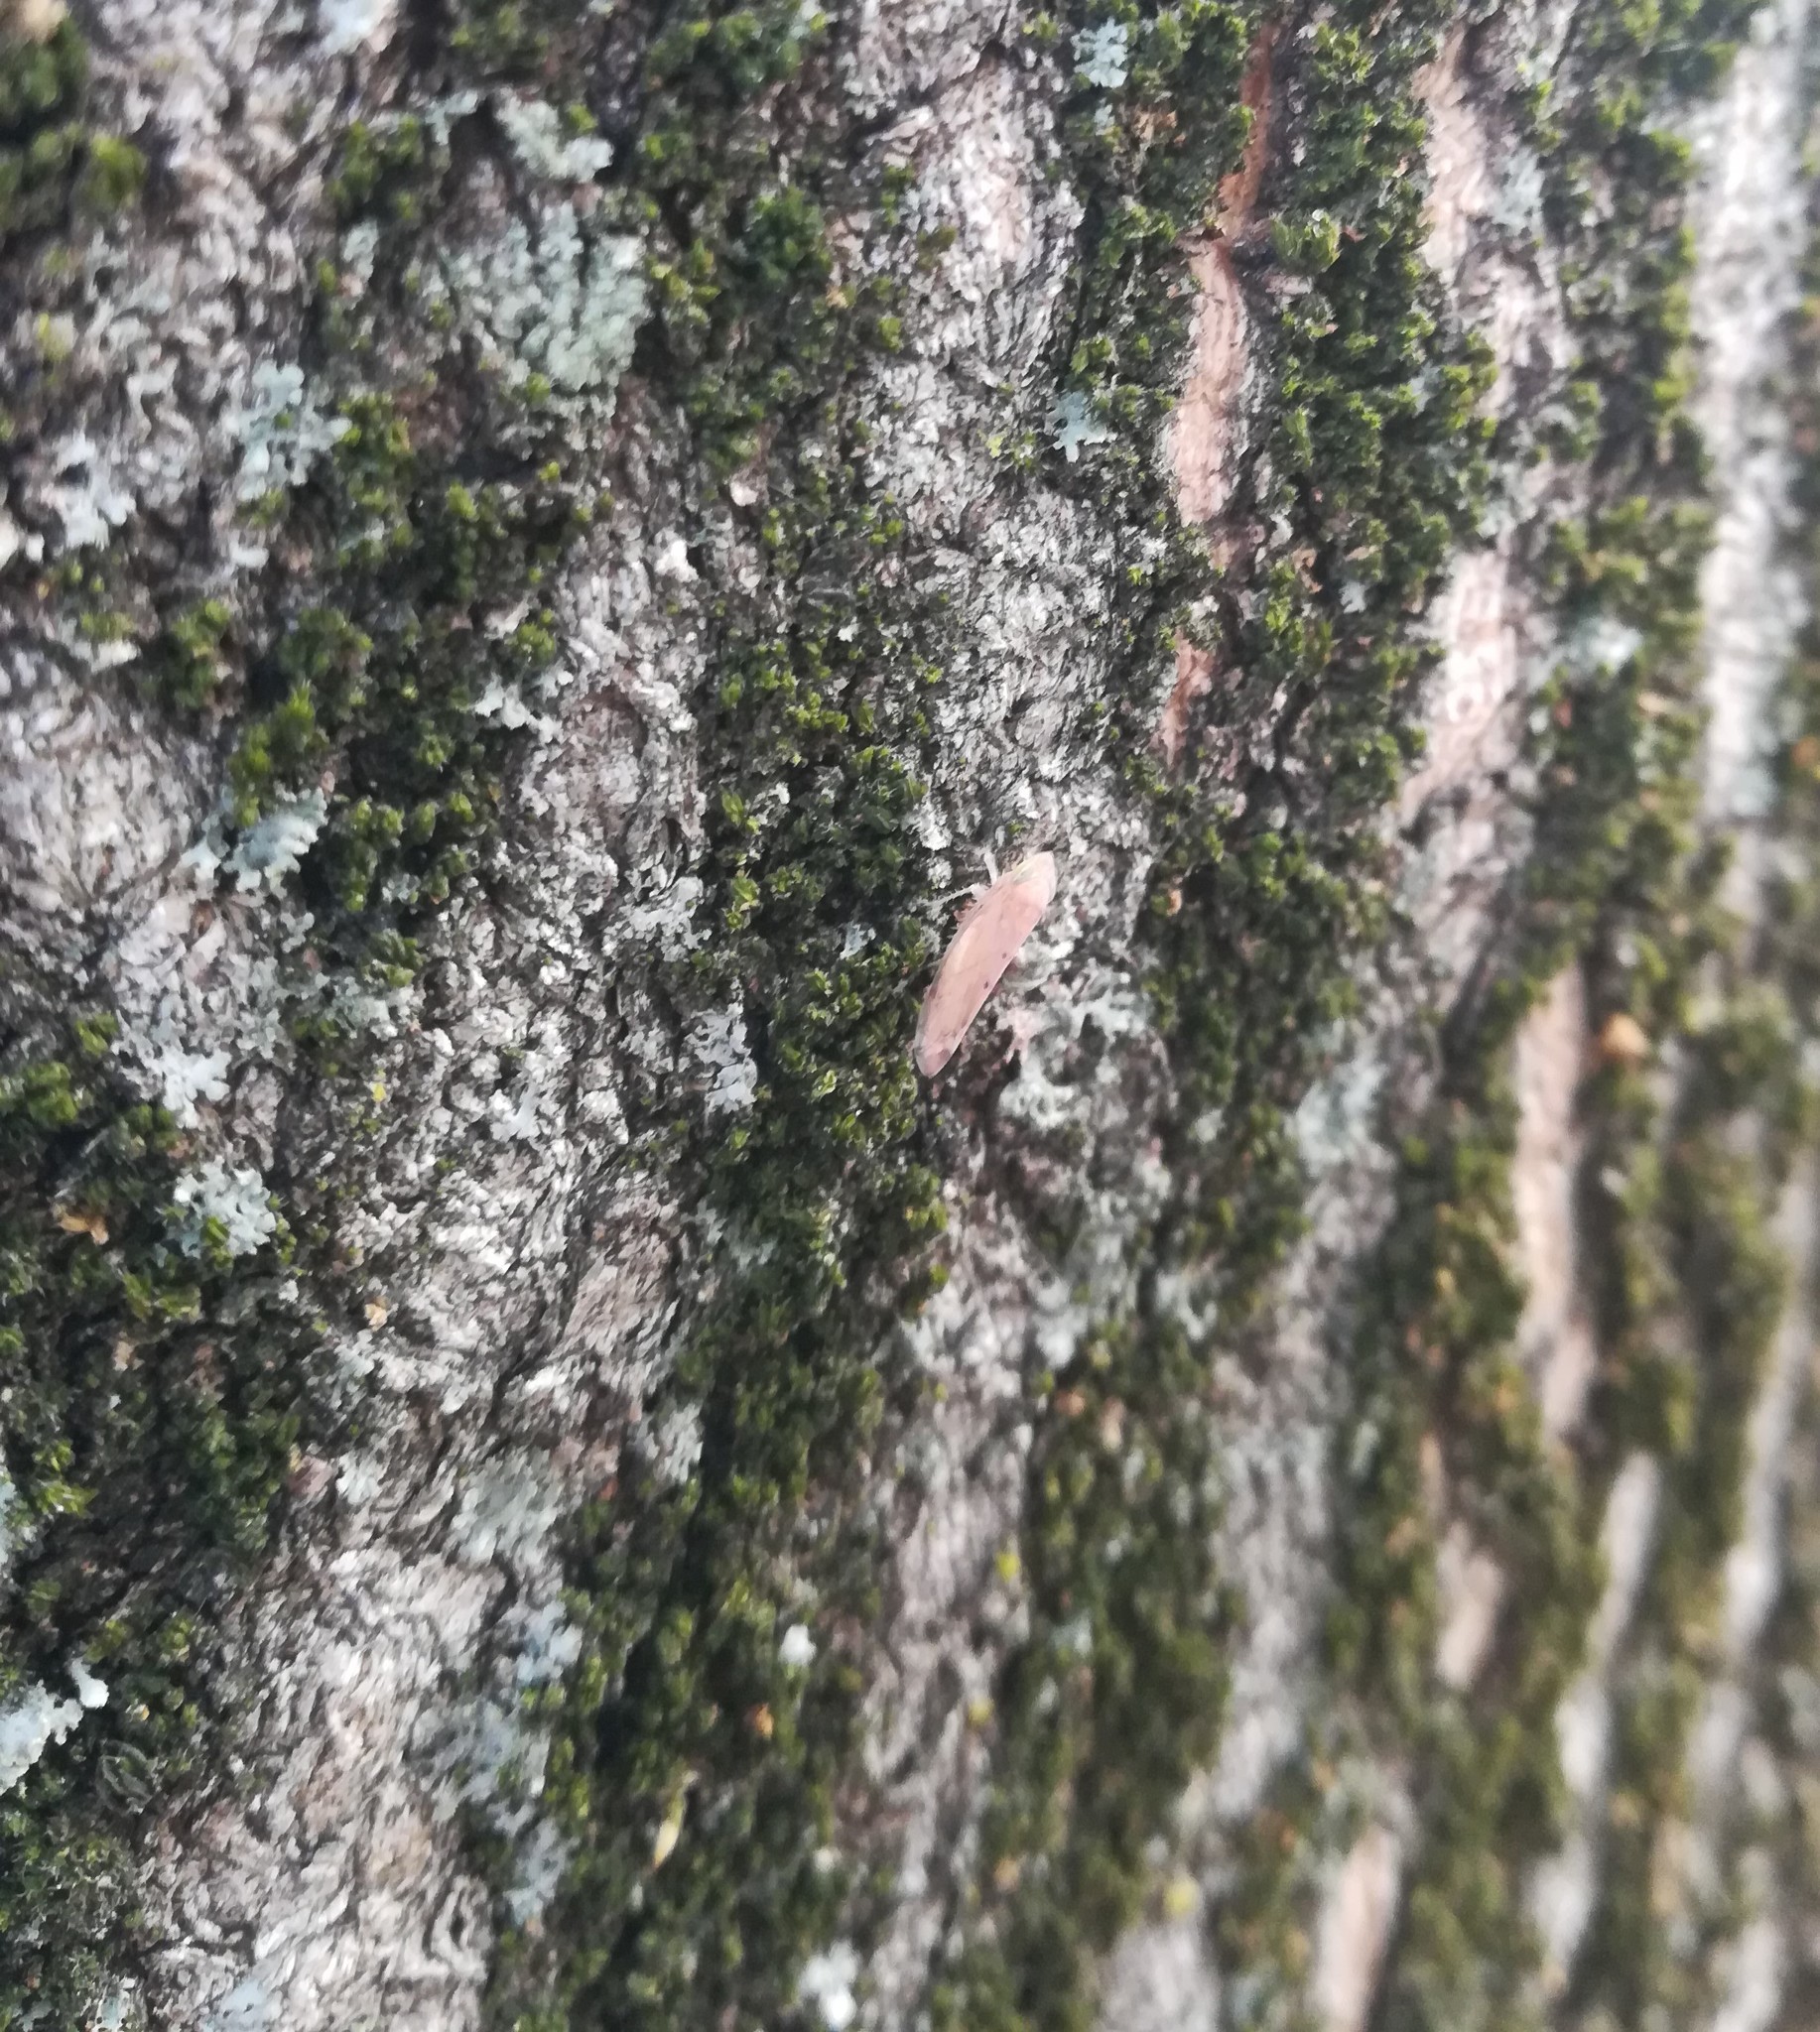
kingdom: Animalia
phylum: Arthropoda
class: Insecta
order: Hemiptera
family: Cicadellidae
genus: Synophropsis
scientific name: Synophropsis lauri
